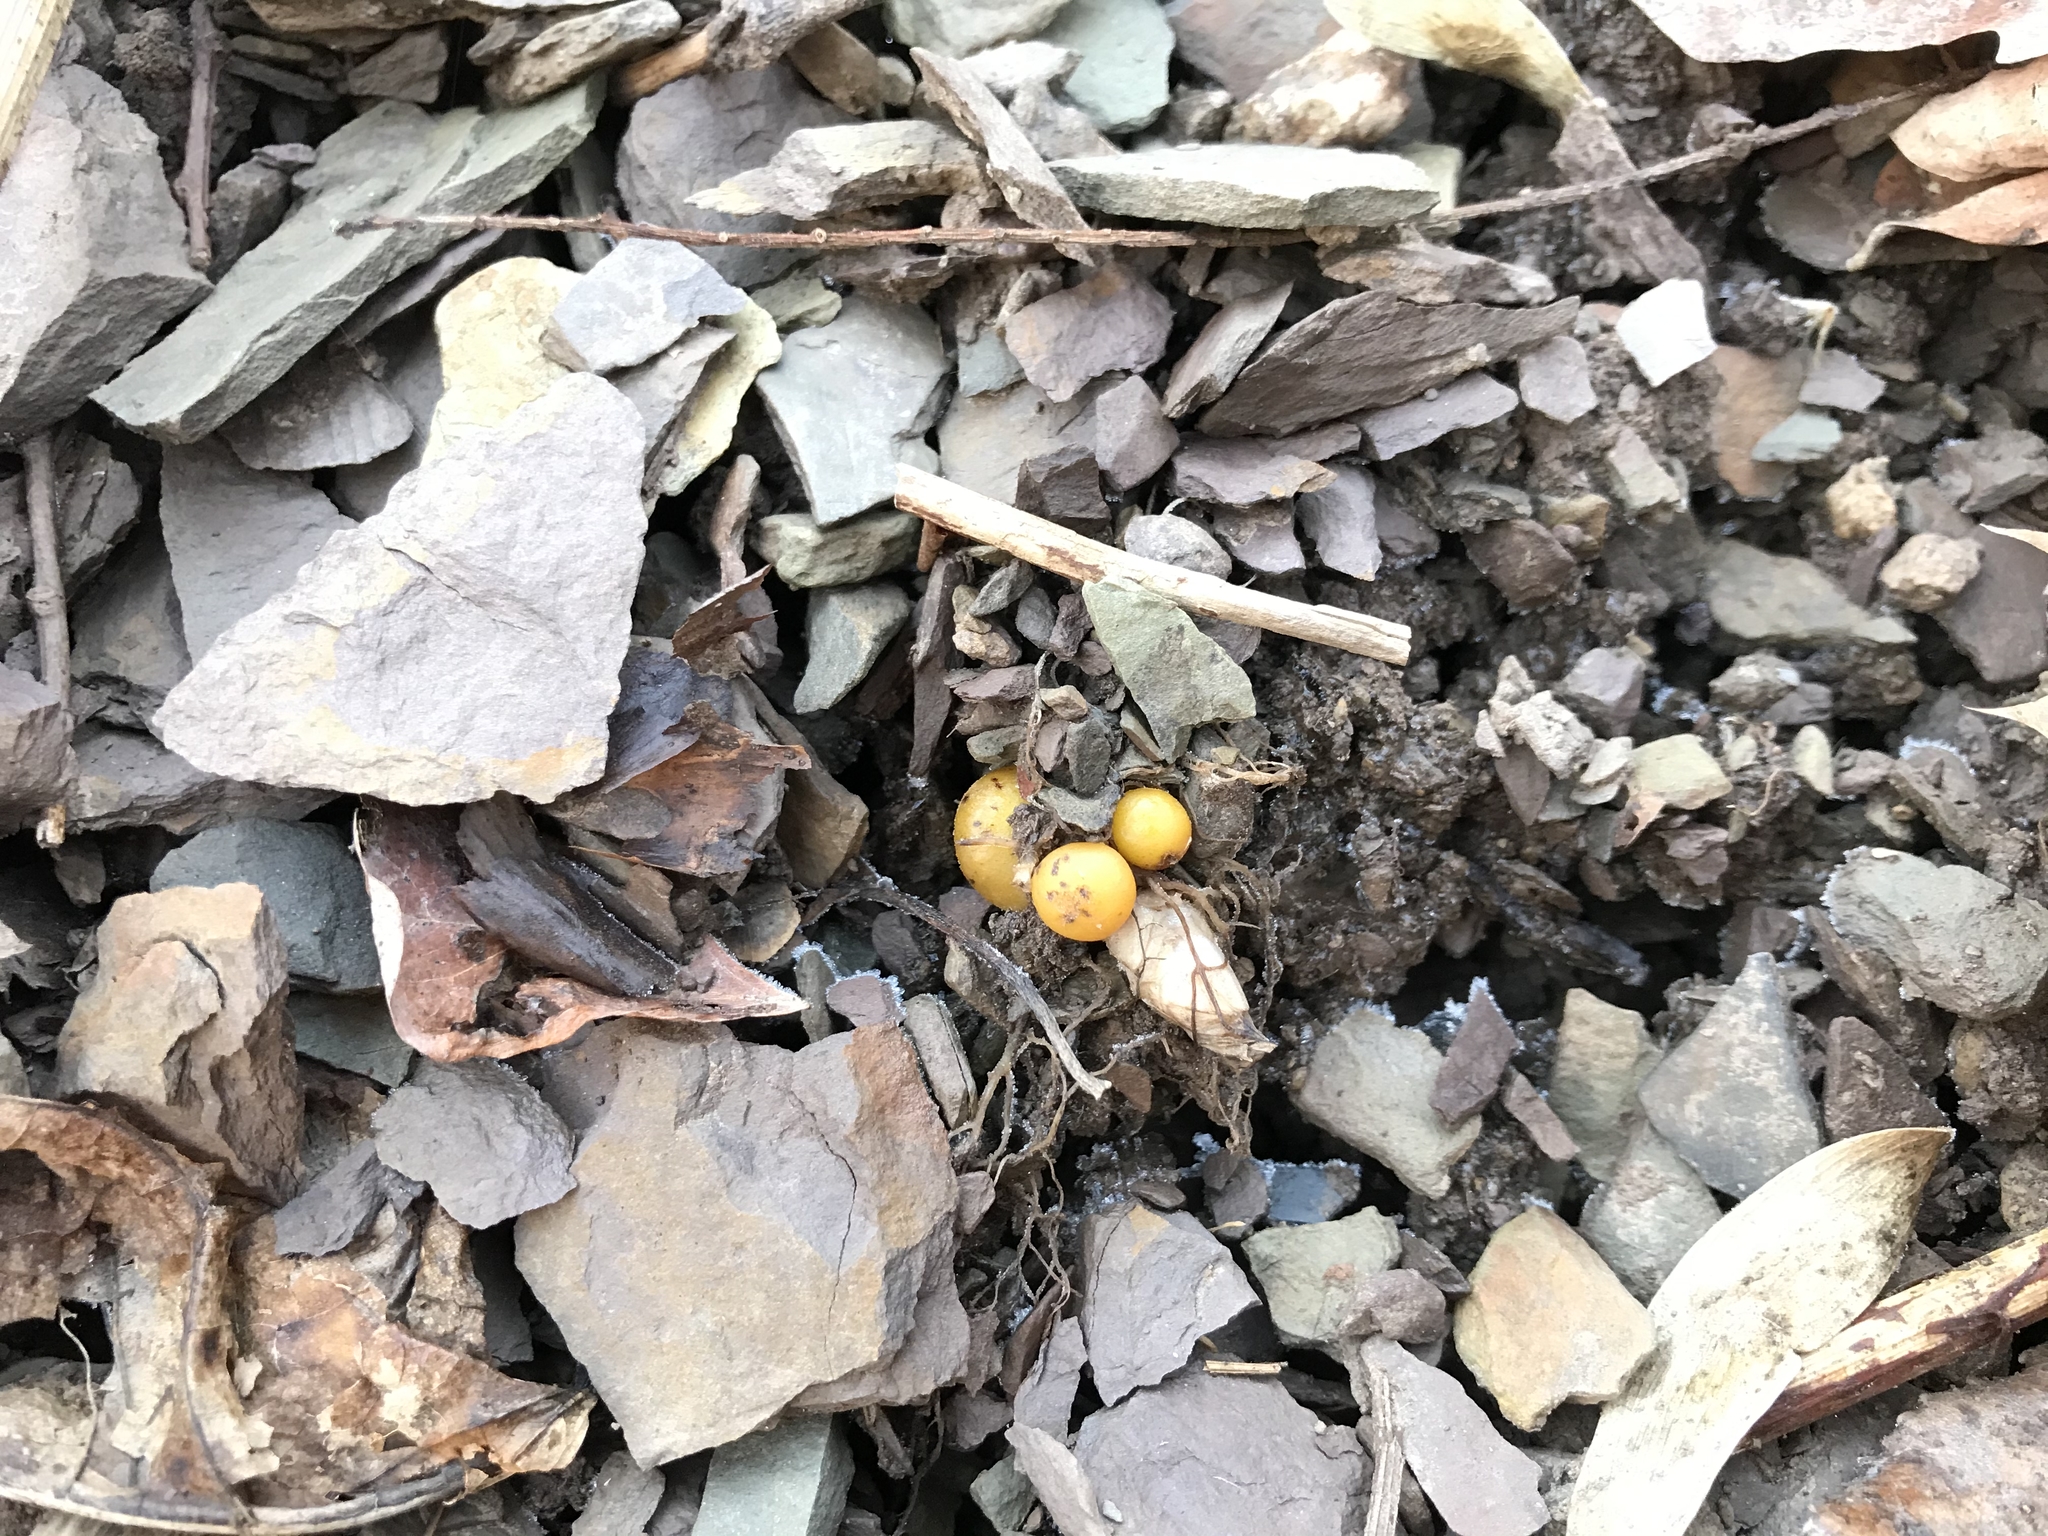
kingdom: Plantae
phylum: Tracheophyta
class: Magnoliopsida
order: Ranunculales
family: Papaveraceae
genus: Dicentra
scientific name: Dicentra canadensis
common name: Squirrel-corn
